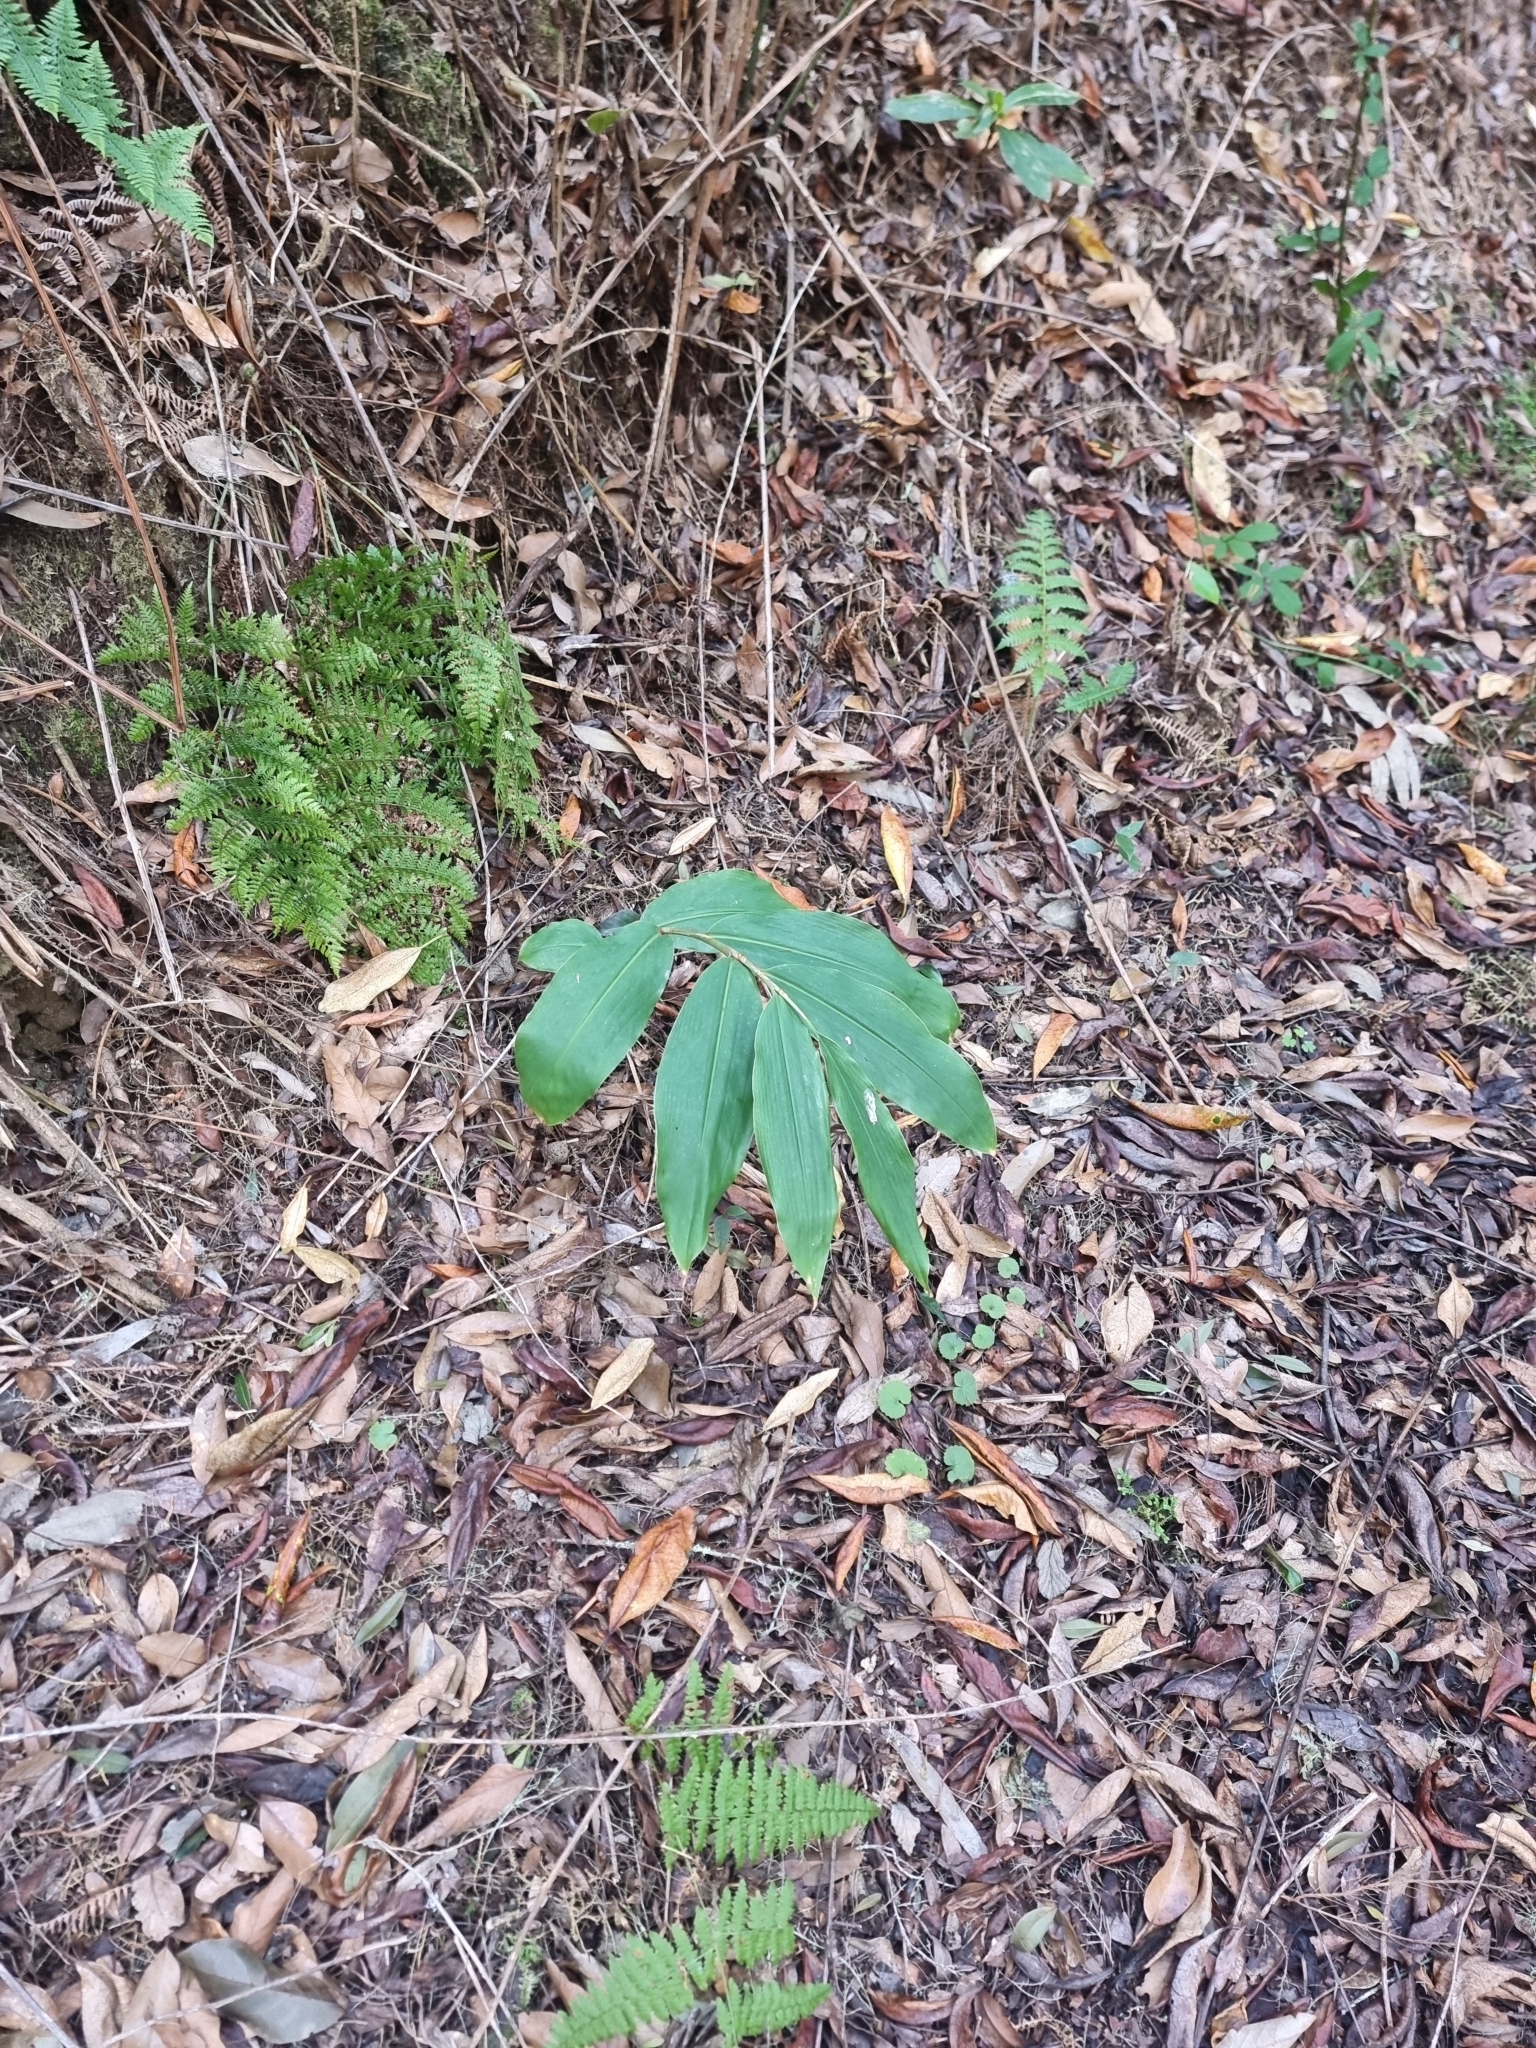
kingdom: Plantae
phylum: Tracheophyta
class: Liliopsida
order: Zingiberales
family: Zingiberaceae
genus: Hedychium
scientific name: Hedychium gardnerianum
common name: Himalayan ginger
